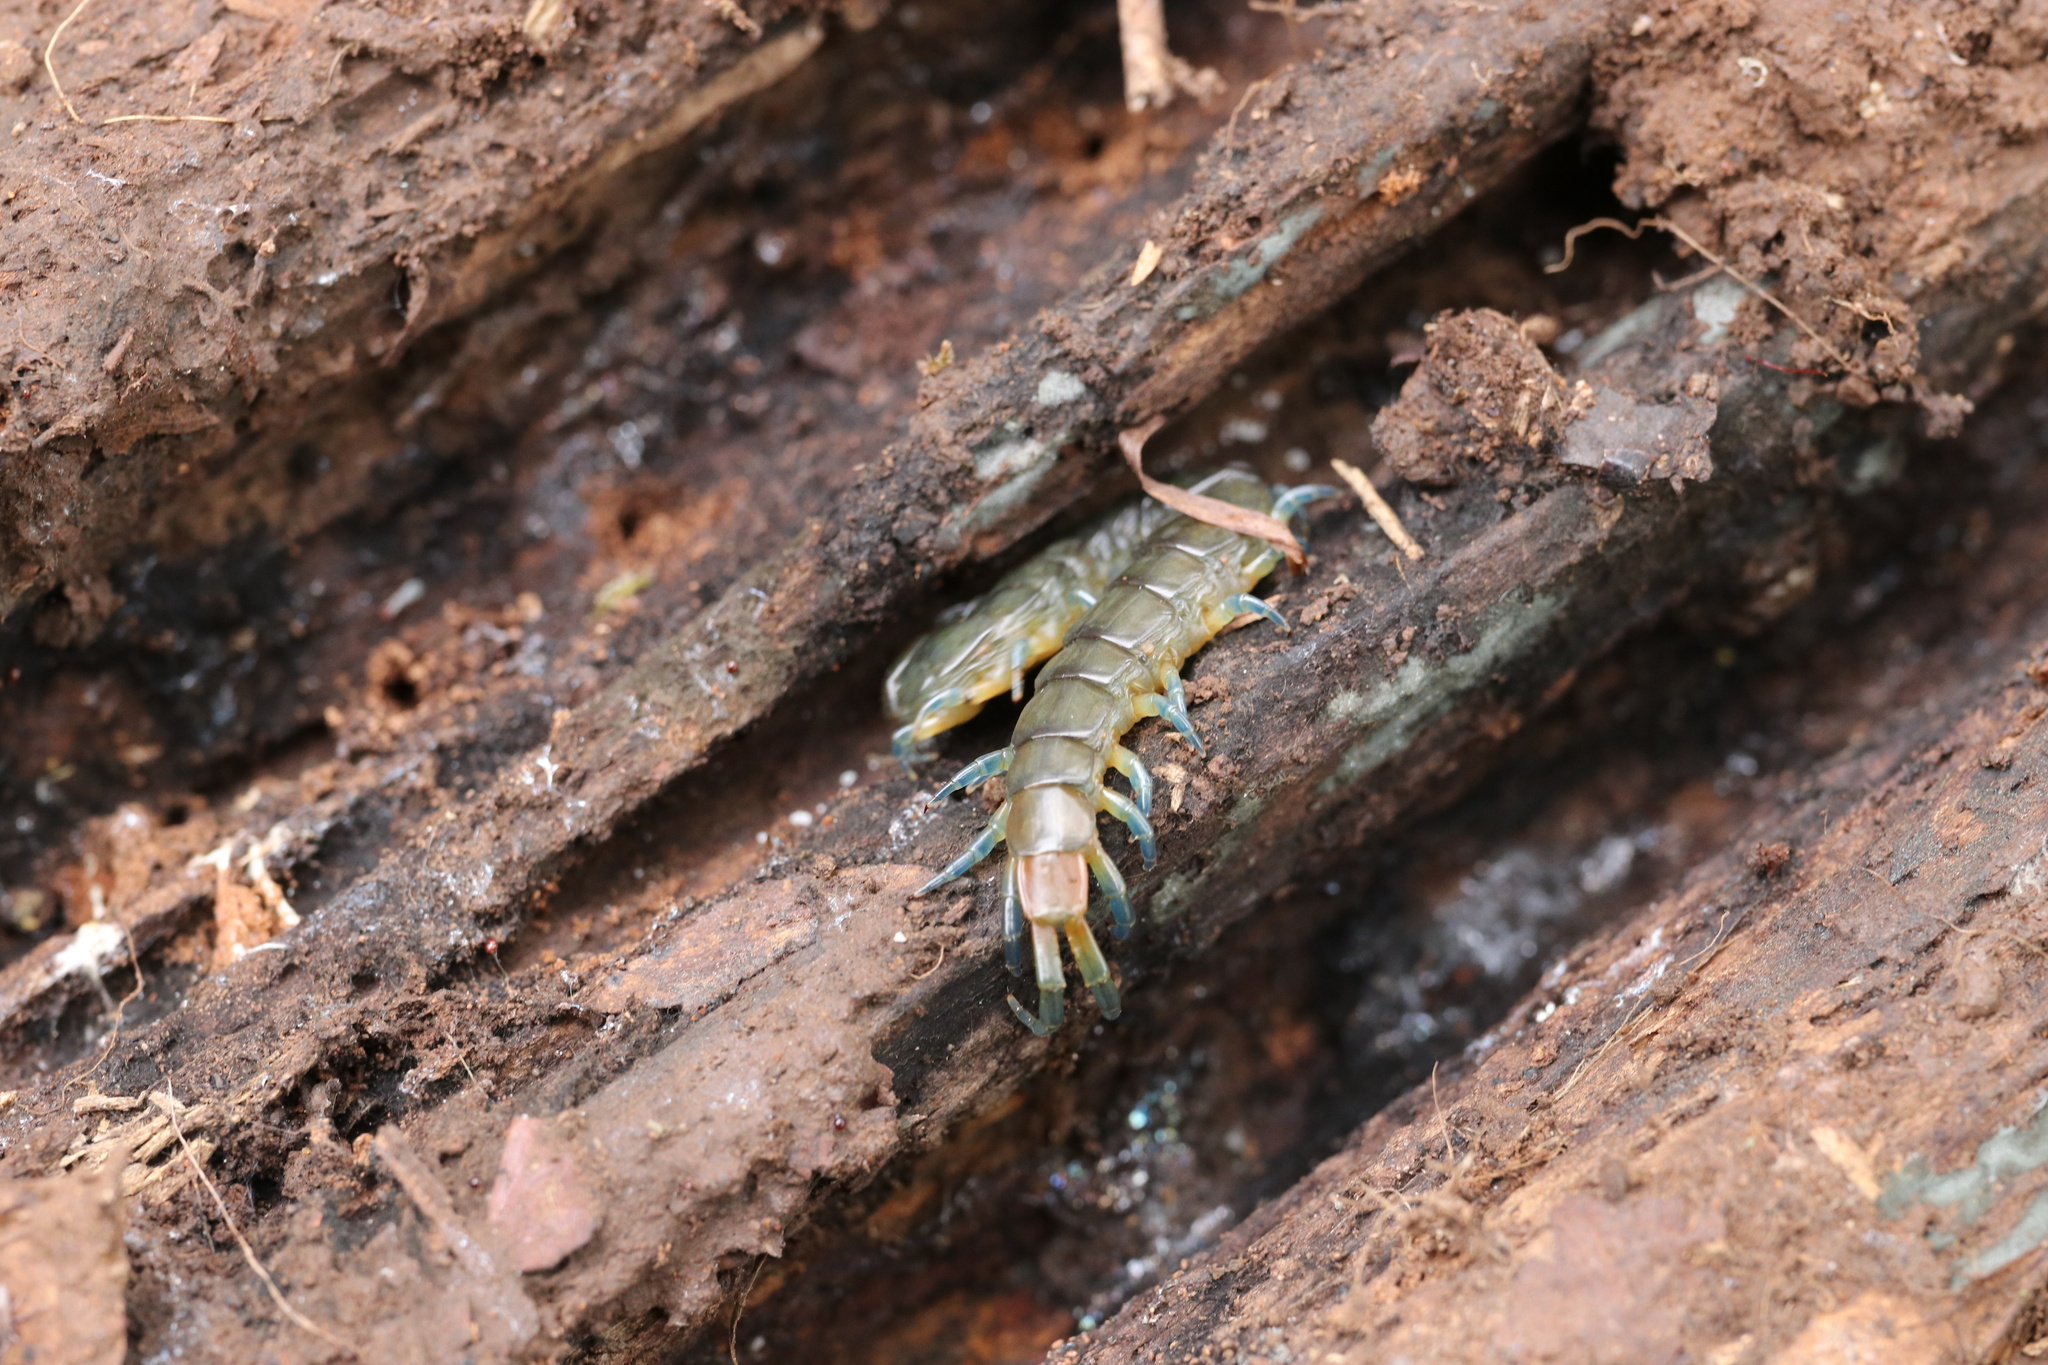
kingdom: Animalia
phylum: Arthropoda
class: Chilopoda
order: Scolopendromorpha
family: Scolopendridae
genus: Hemiscolopendra
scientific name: Hemiscolopendra chilensis
